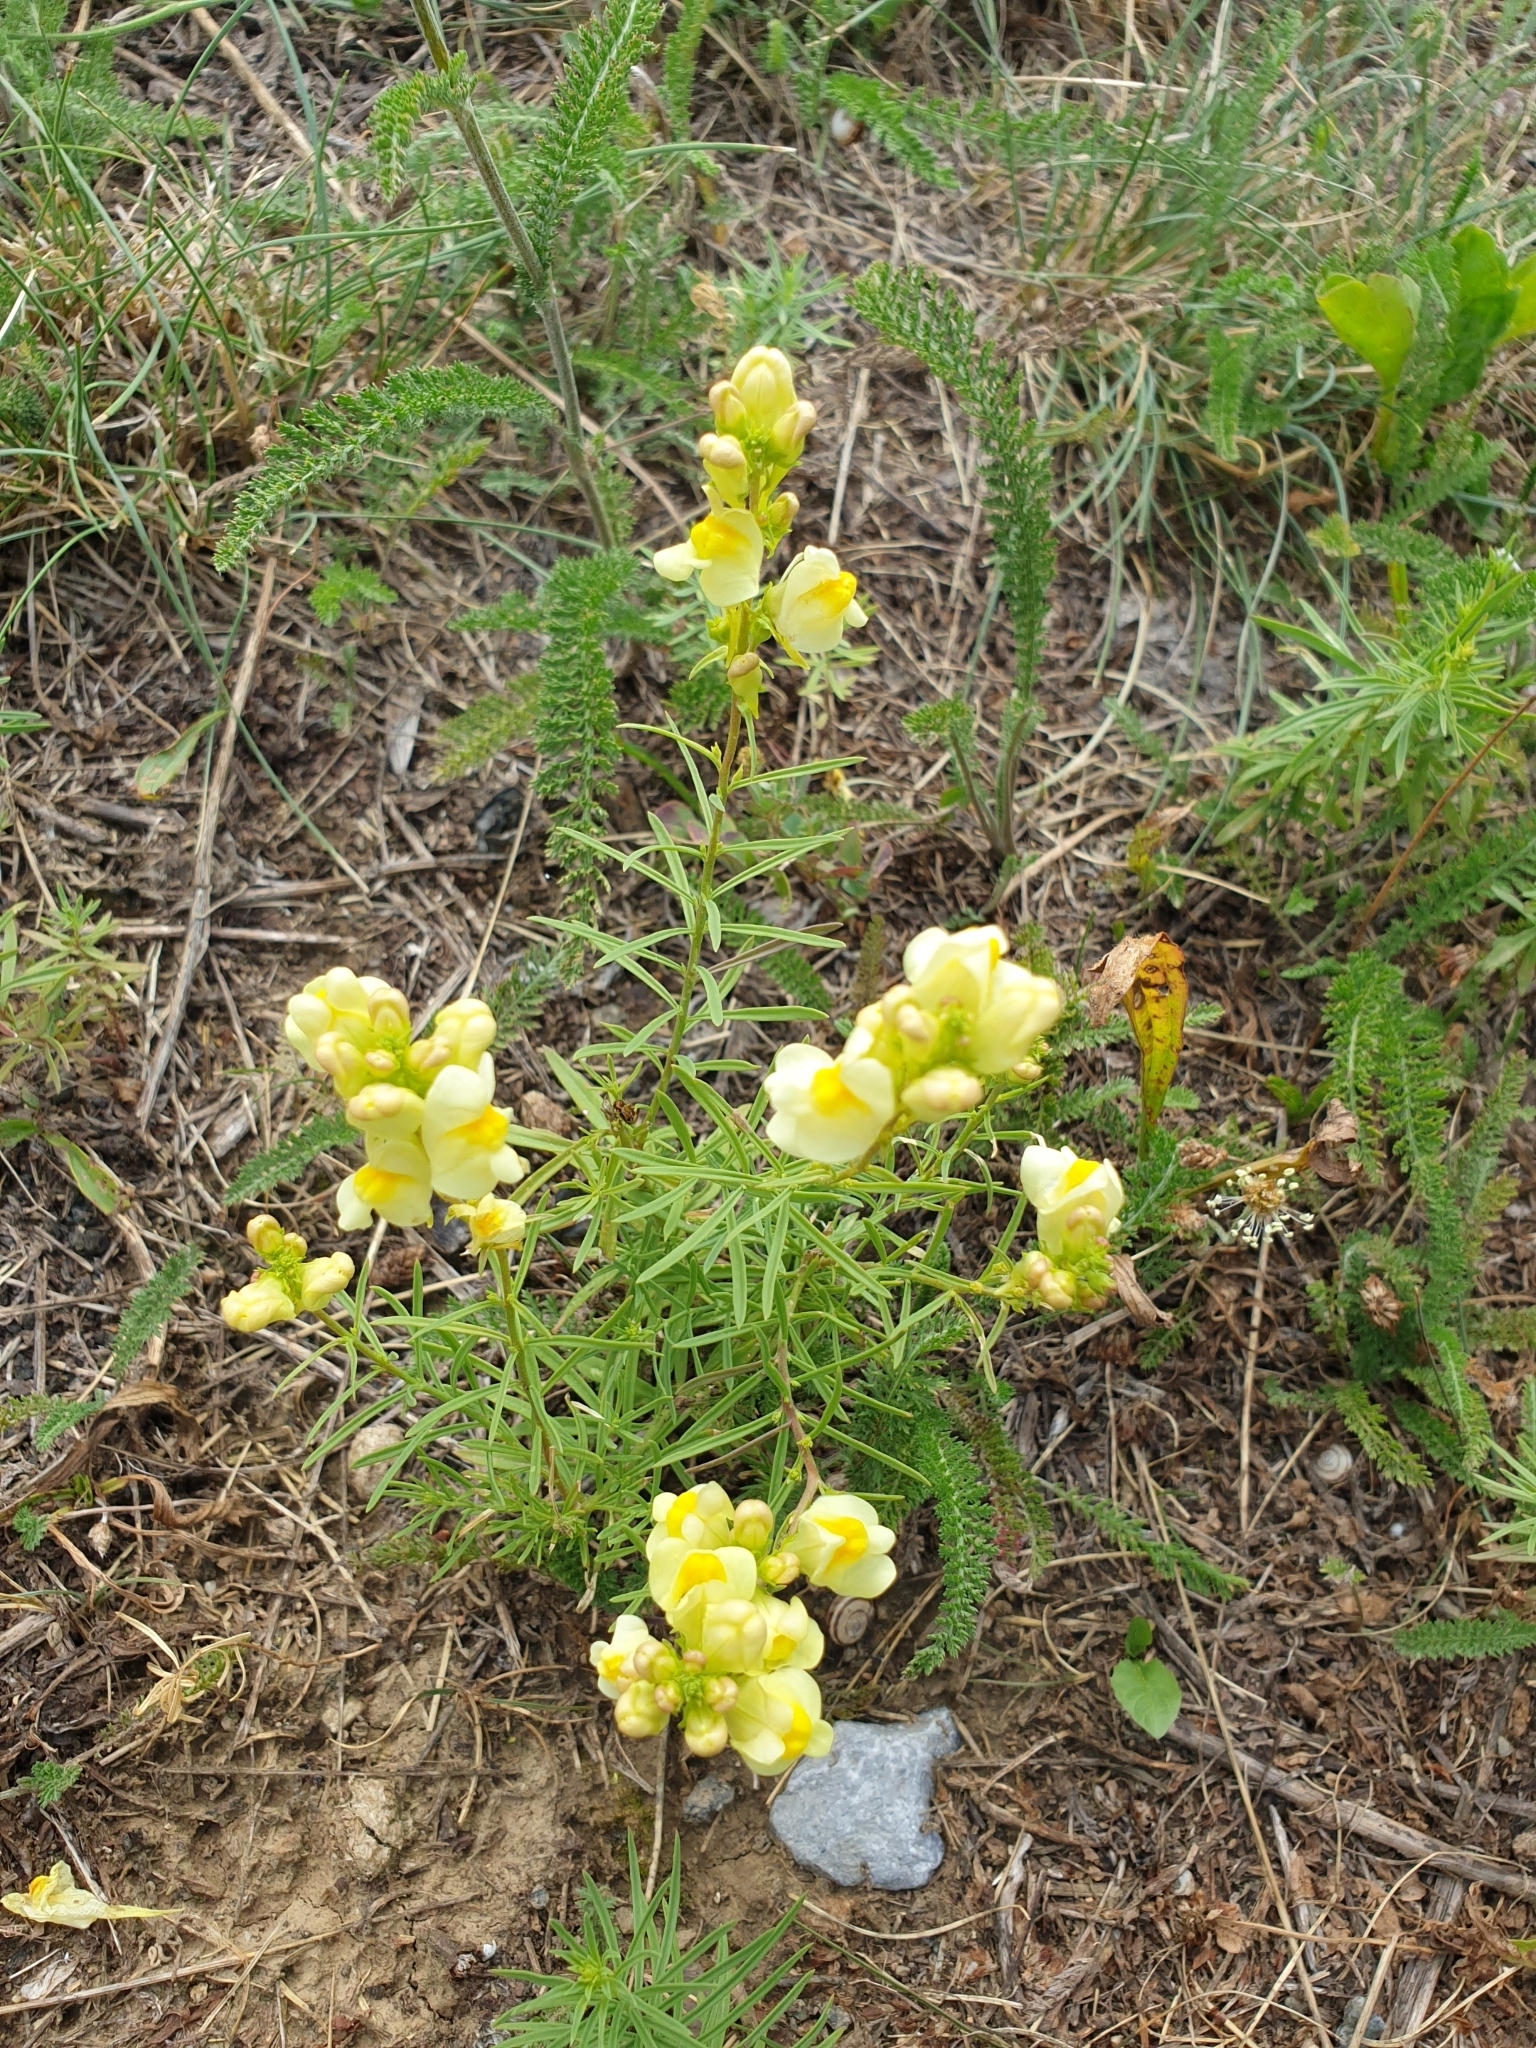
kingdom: Plantae
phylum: Tracheophyta
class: Magnoliopsida
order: Lamiales
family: Plantaginaceae
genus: Linaria
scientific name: Linaria vulgaris
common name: Butter and eggs
